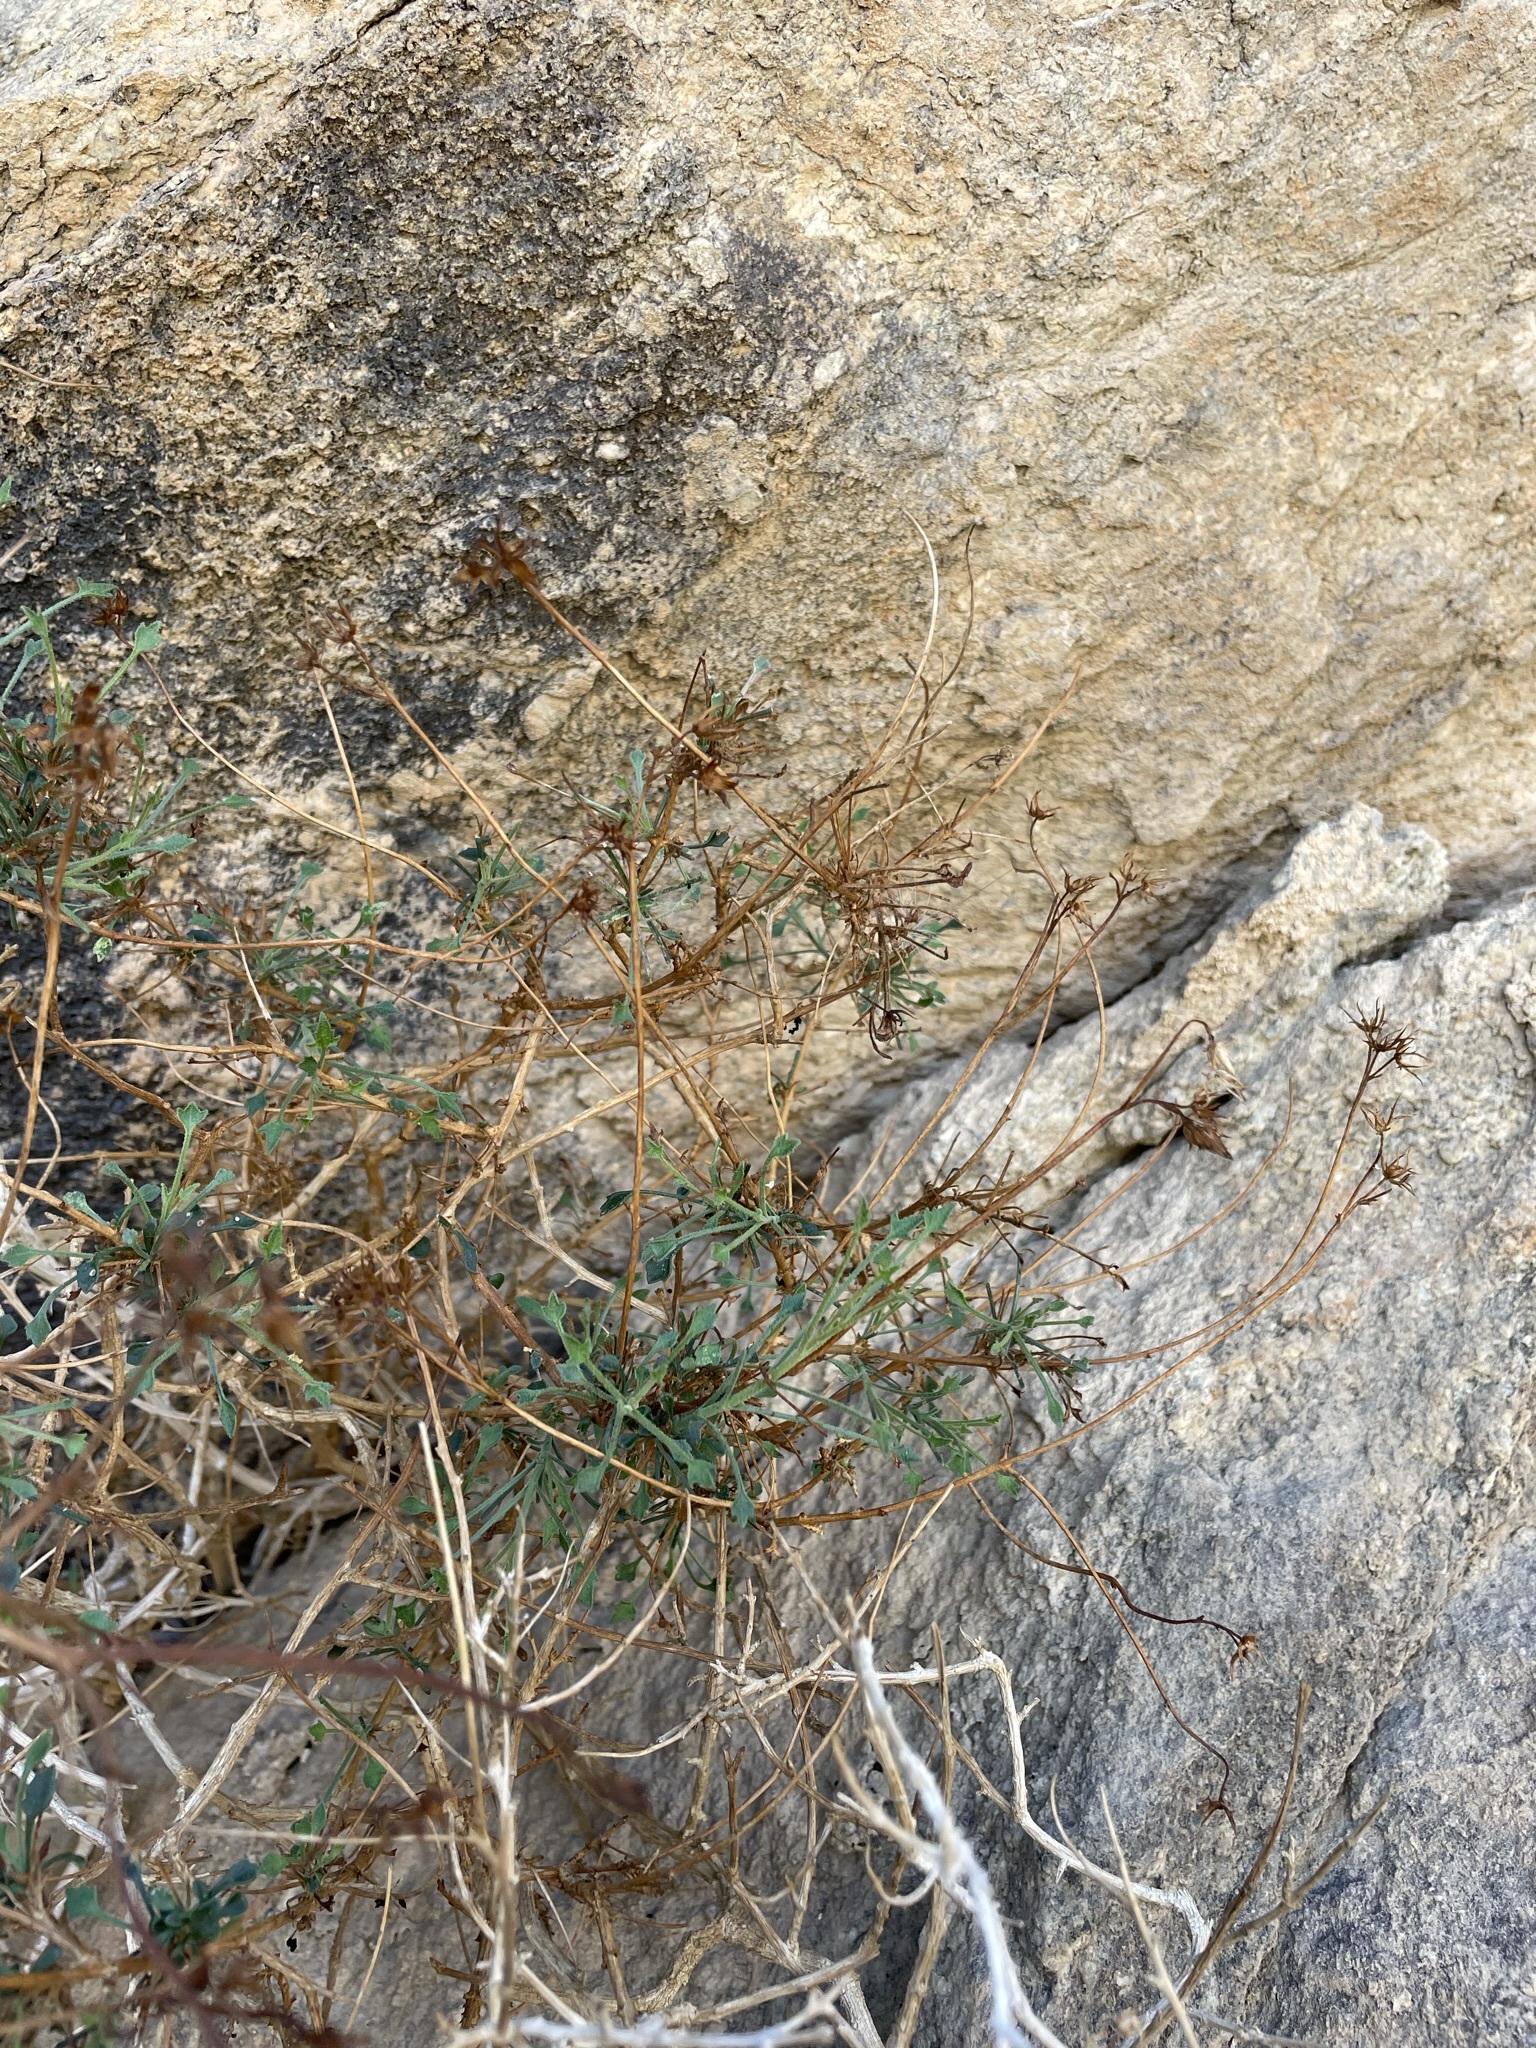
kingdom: Plantae
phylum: Tracheophyta
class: Magnoliopsida
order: Asterales
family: Asteraceae
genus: Pleurocoronis
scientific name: Pleurocoronis pluriseta
